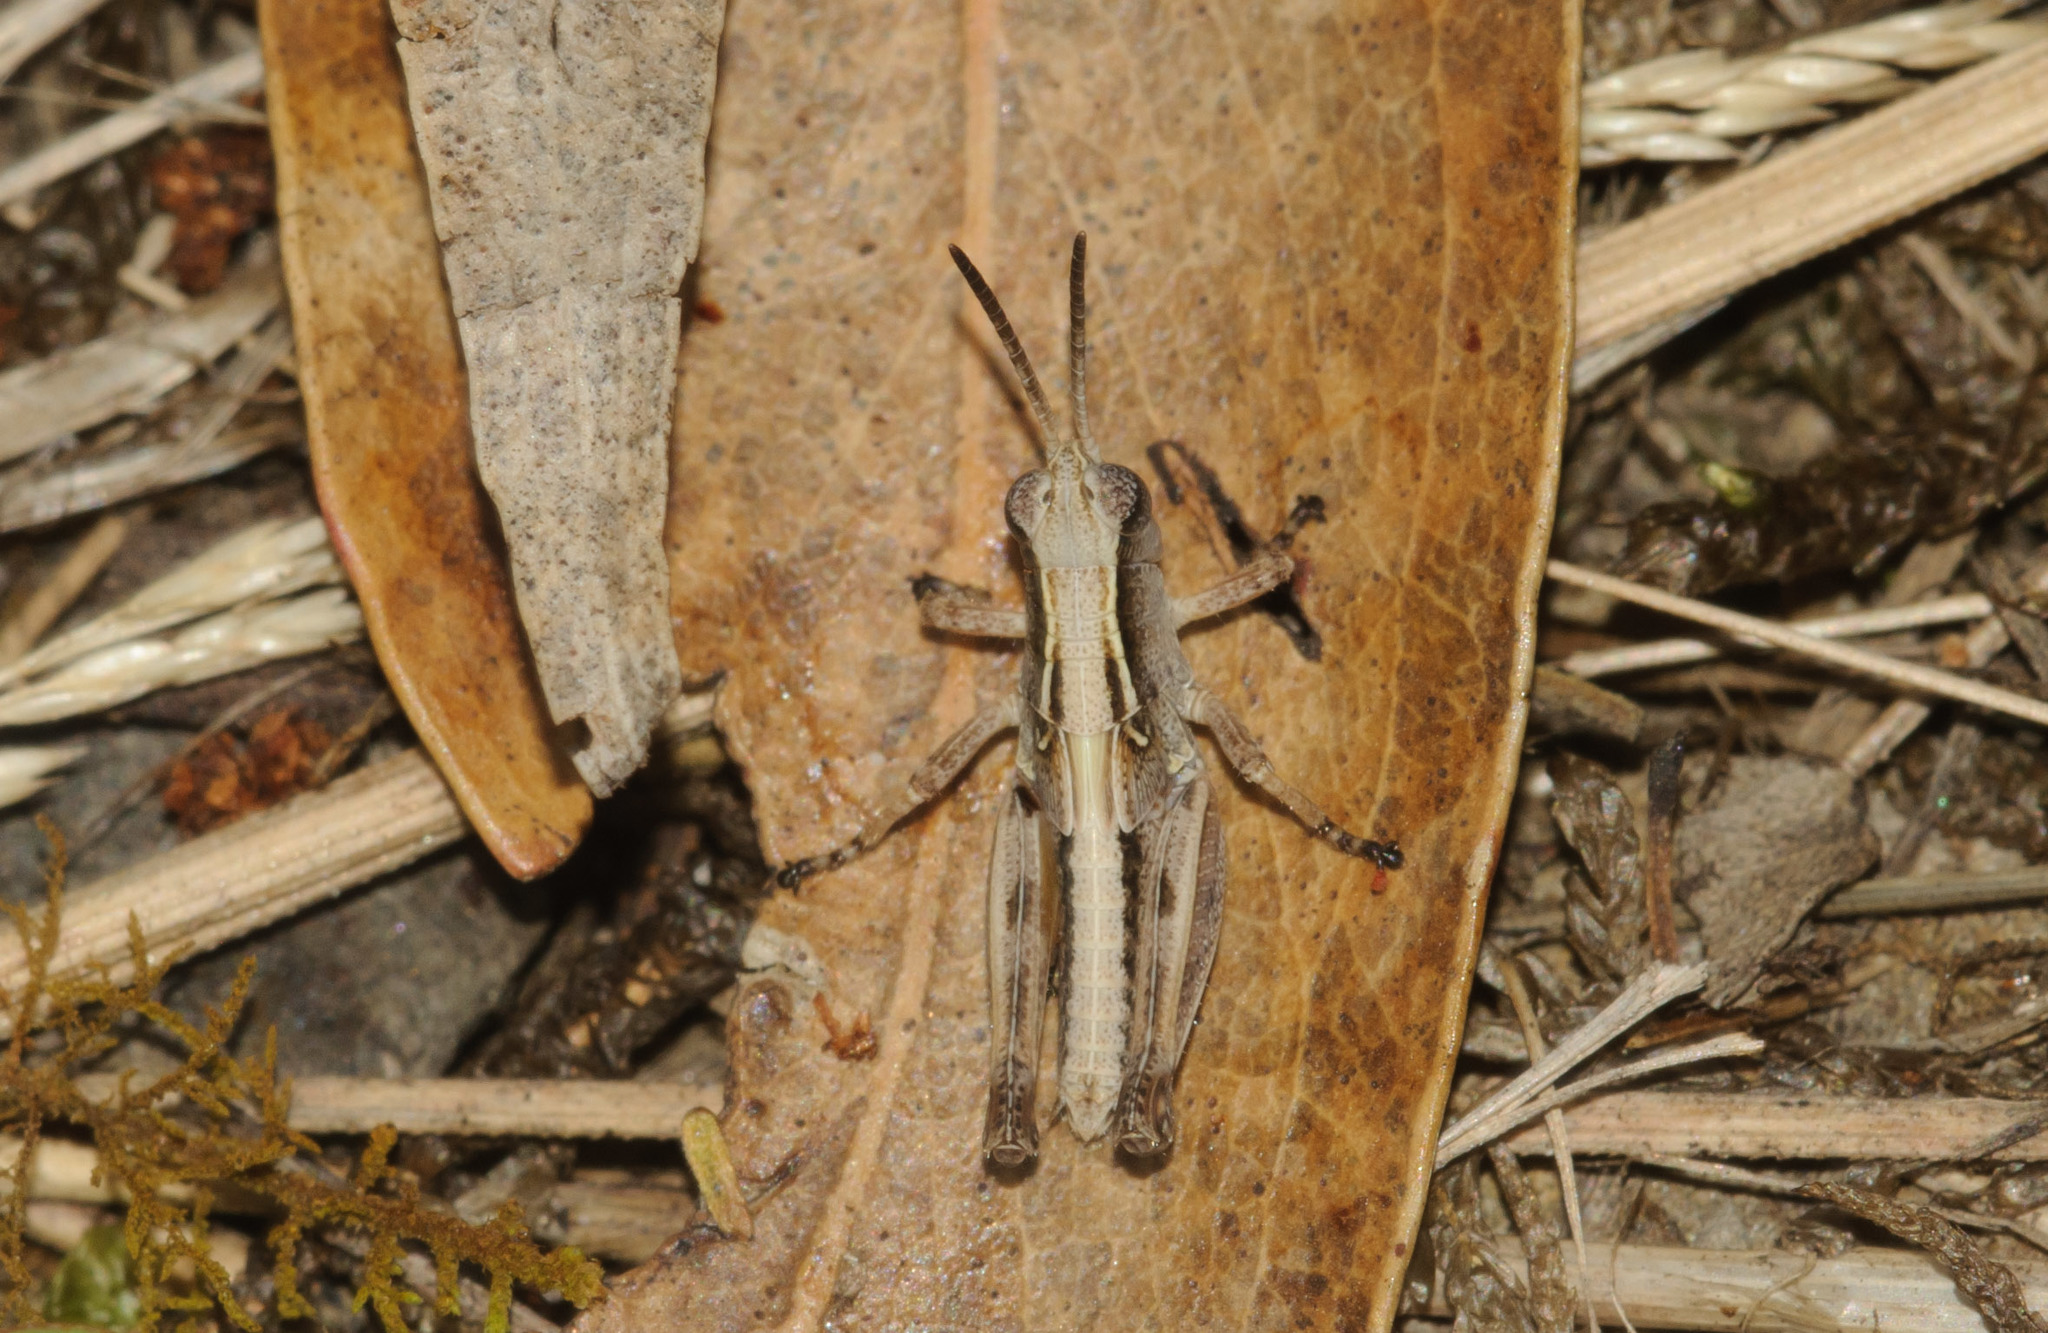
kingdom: Animalia
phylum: Arthropoda
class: Insecta
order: Orthoptera
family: Acrididae
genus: Phaulacridium
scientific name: Phaulacridium vittatum
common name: Wingless grasshopper
